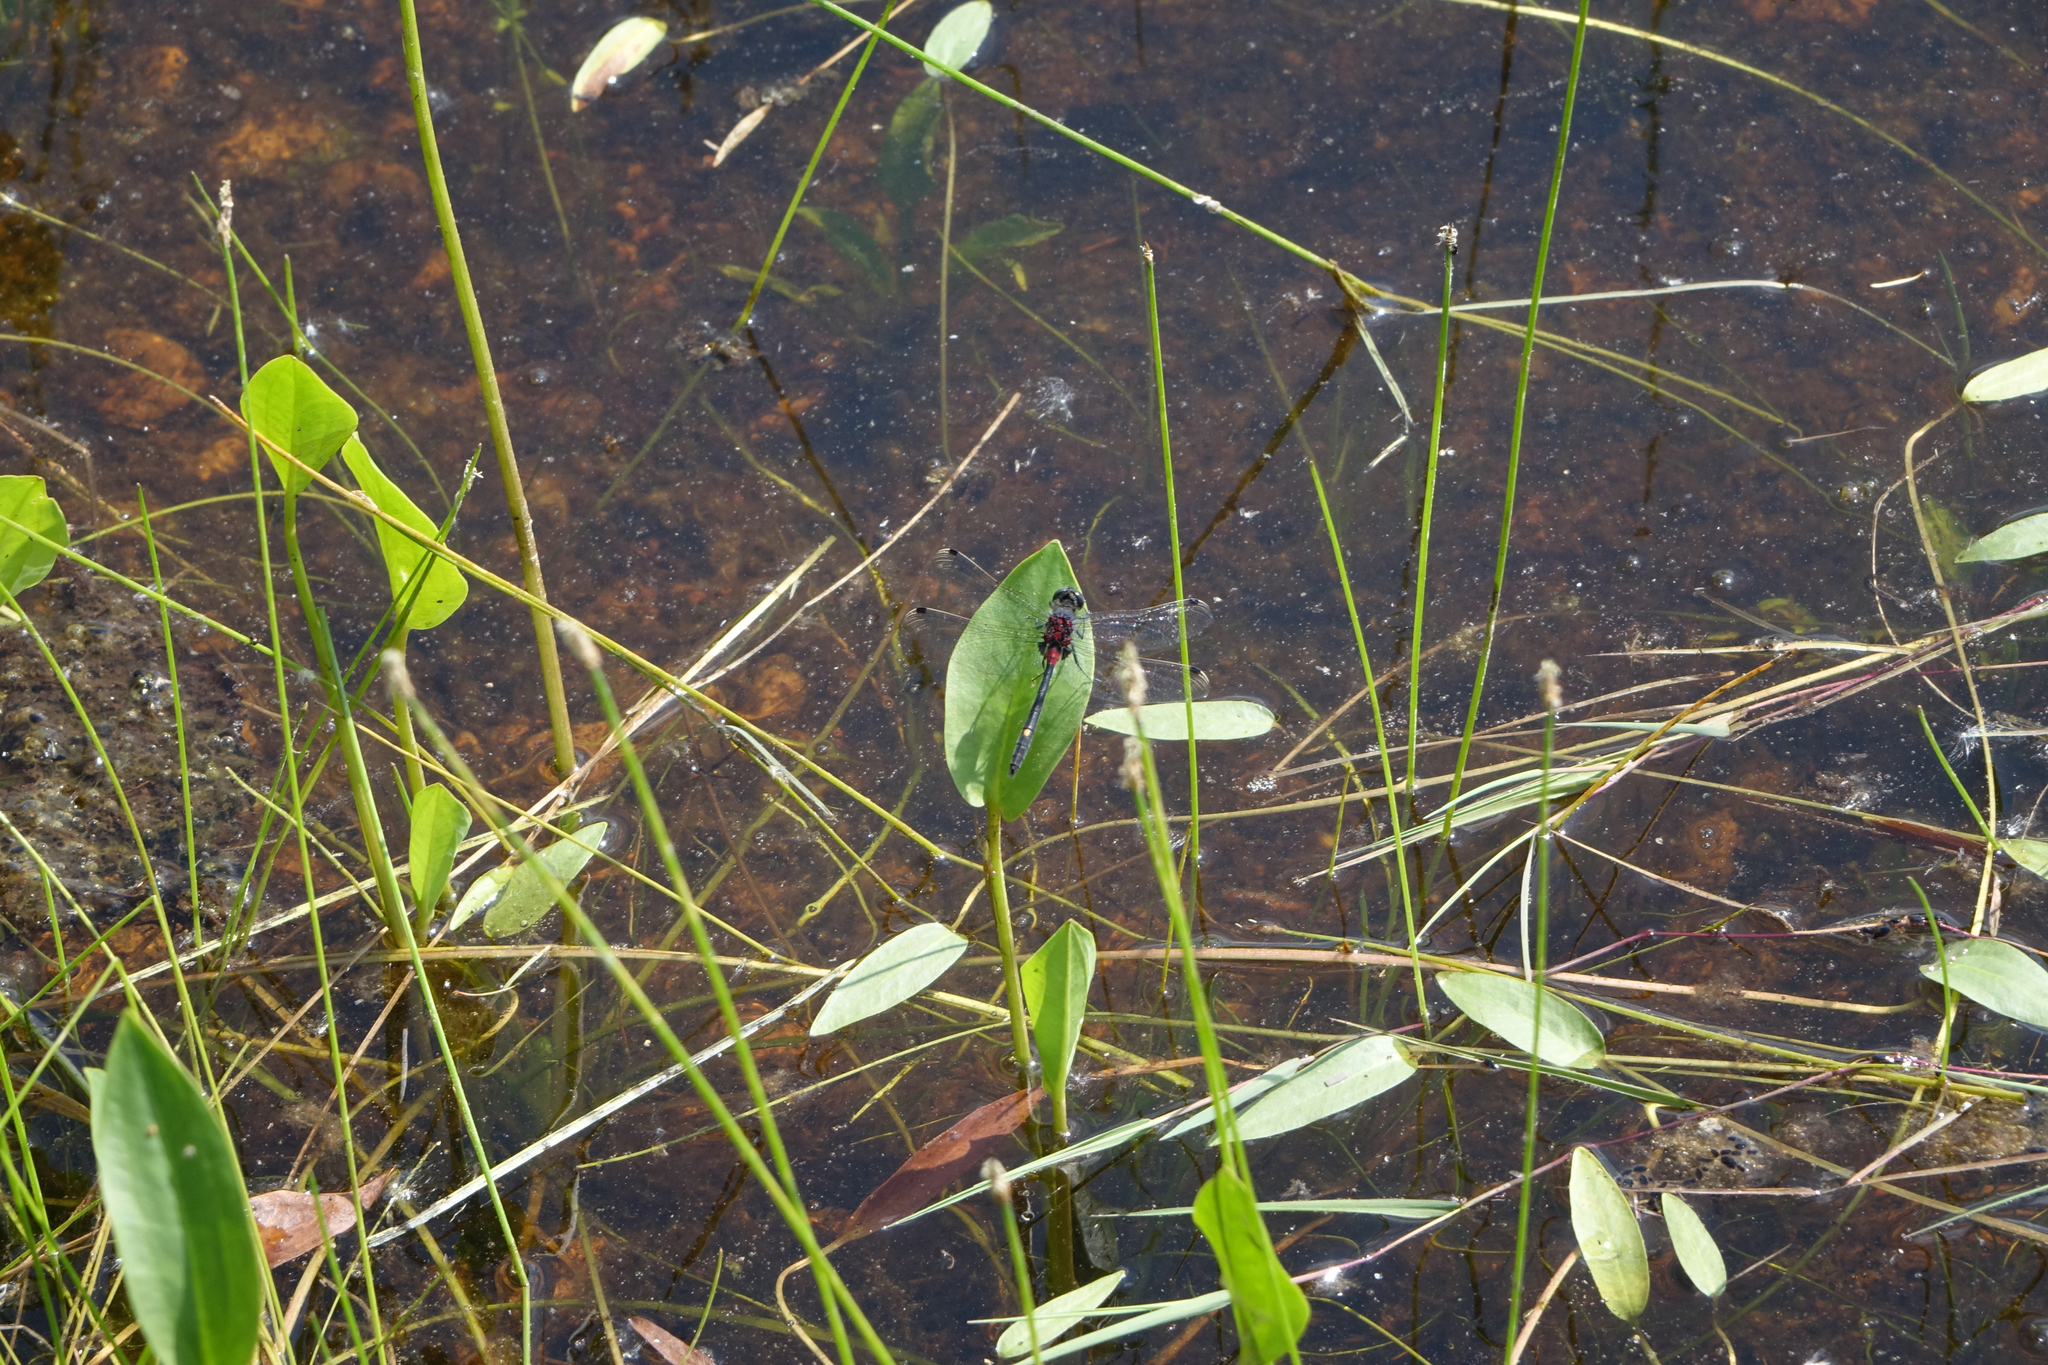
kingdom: Plantae
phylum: Tracheophyta
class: Liliopsida
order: Alismatales
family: Alismataceae
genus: Alisma
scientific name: Alisma plantago-aquatica
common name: Water-plantain
